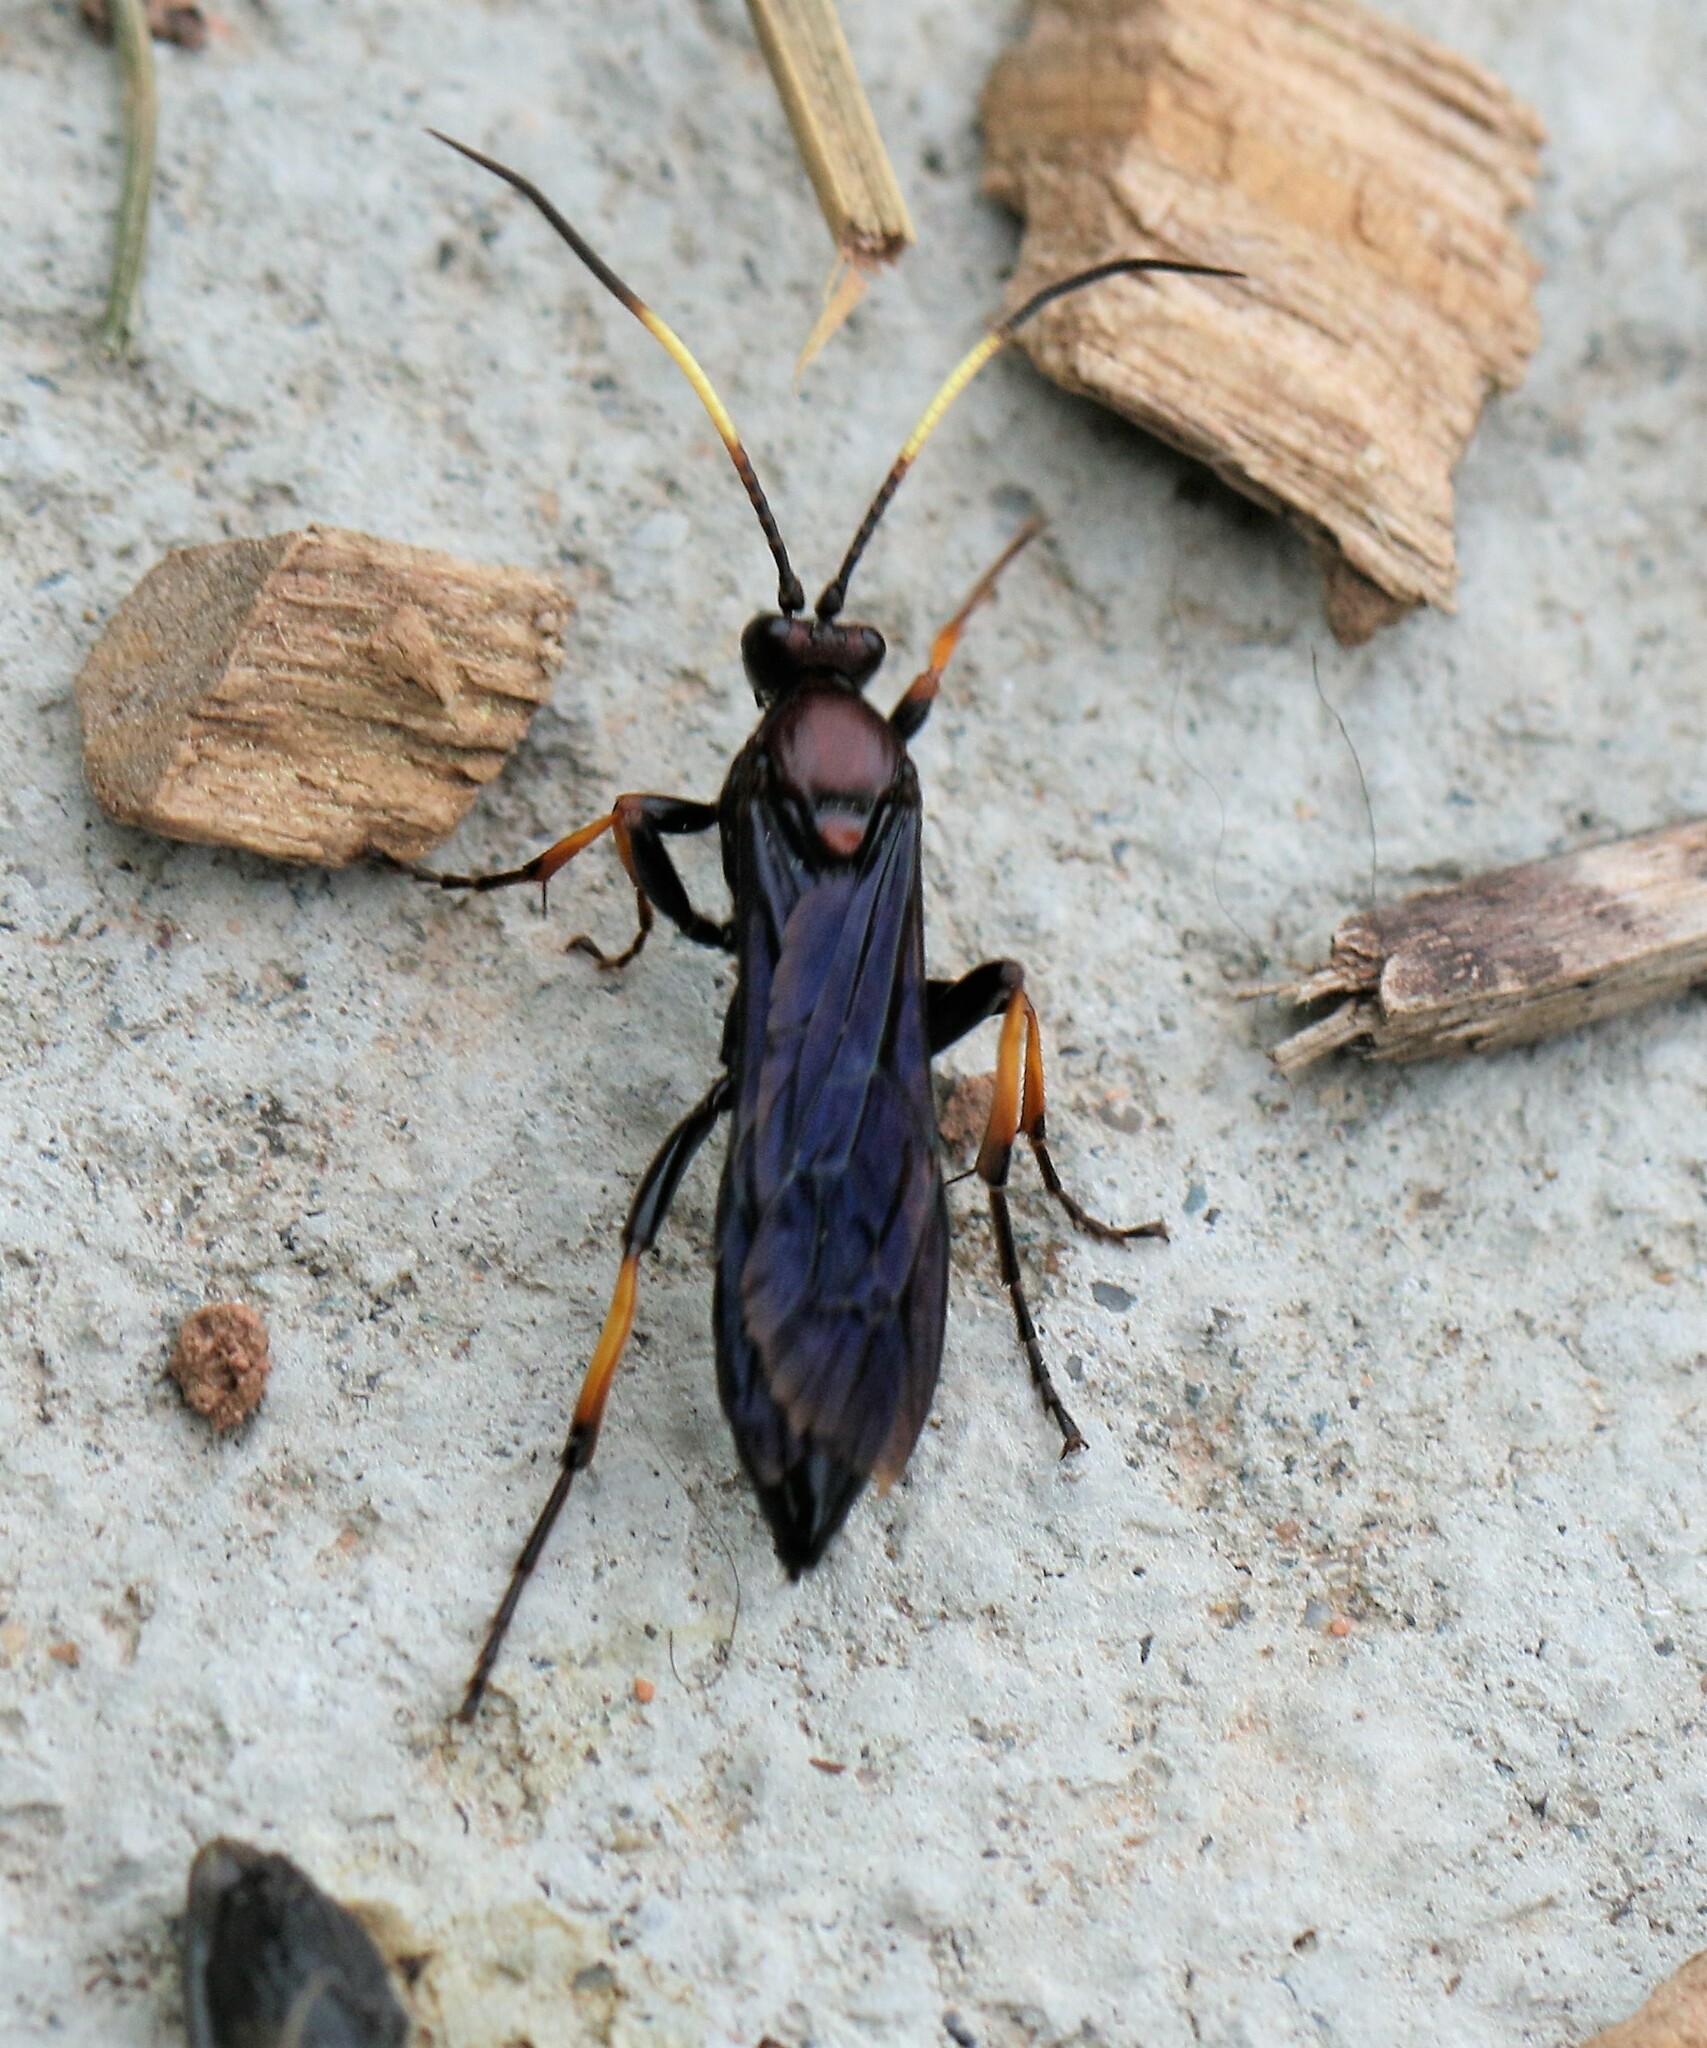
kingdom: Animalia
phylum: Arthropoda
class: Insecta
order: Hymenoptera
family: Ichneumonidae
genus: Ichneumon
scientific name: Ichneumon centrator
